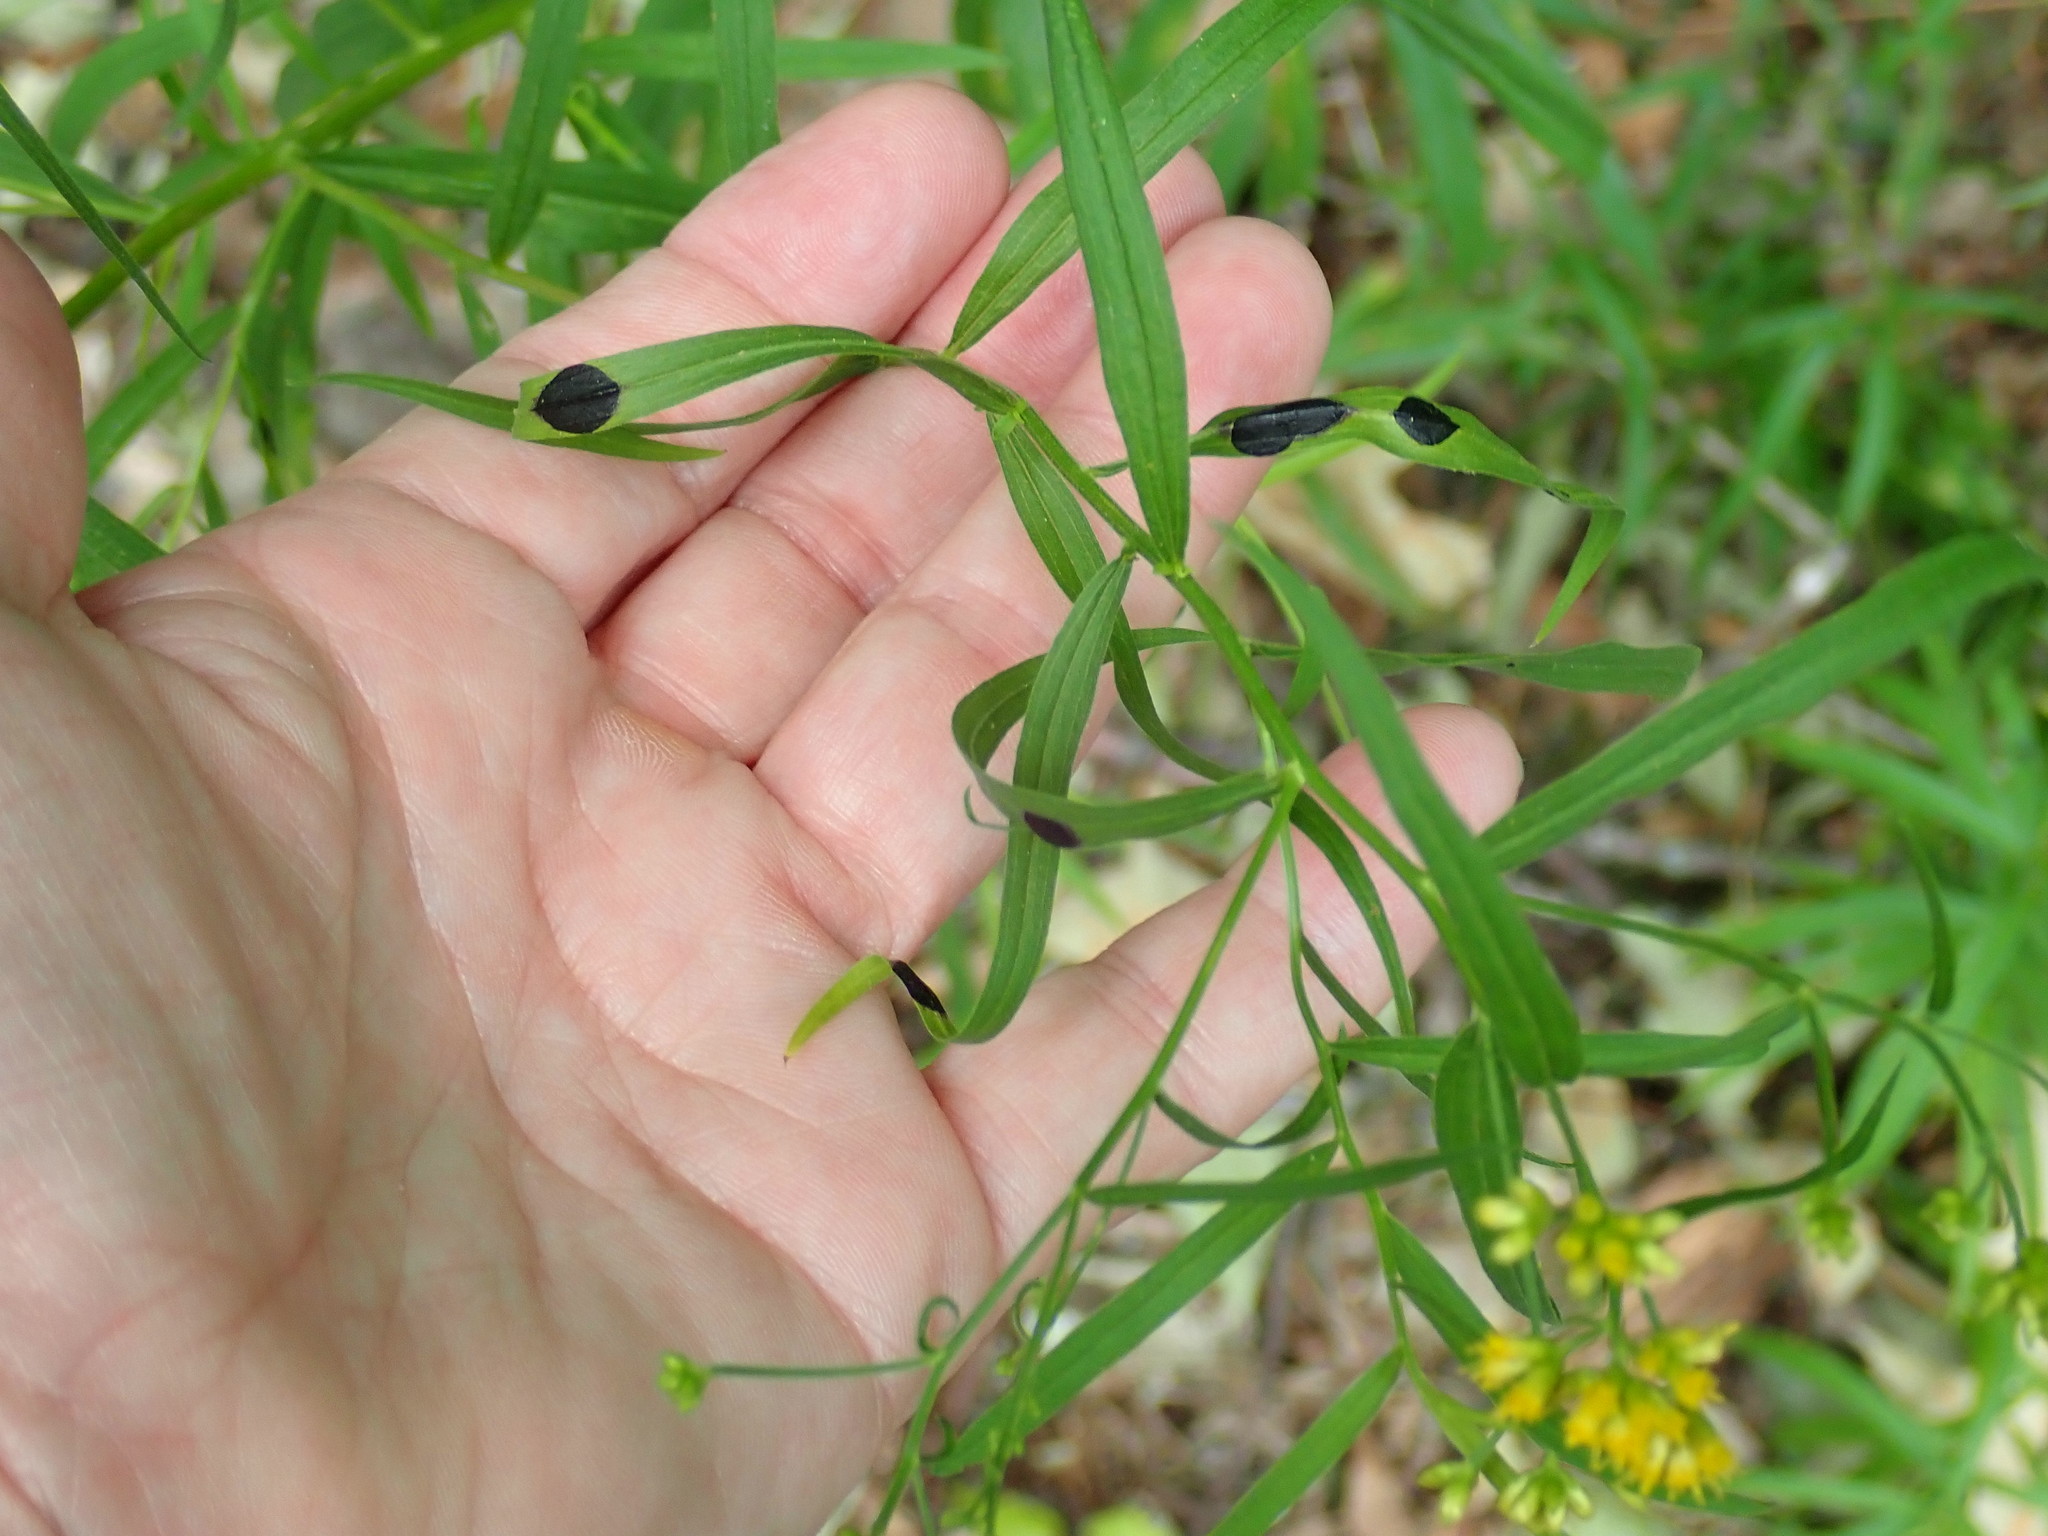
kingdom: Animalia
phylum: Arthropoda
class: Insecta
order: Diptera
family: Cecidomyiidae
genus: Asteromyia
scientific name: Asteromyia euthamiae
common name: Euthamia leaf gall midge
